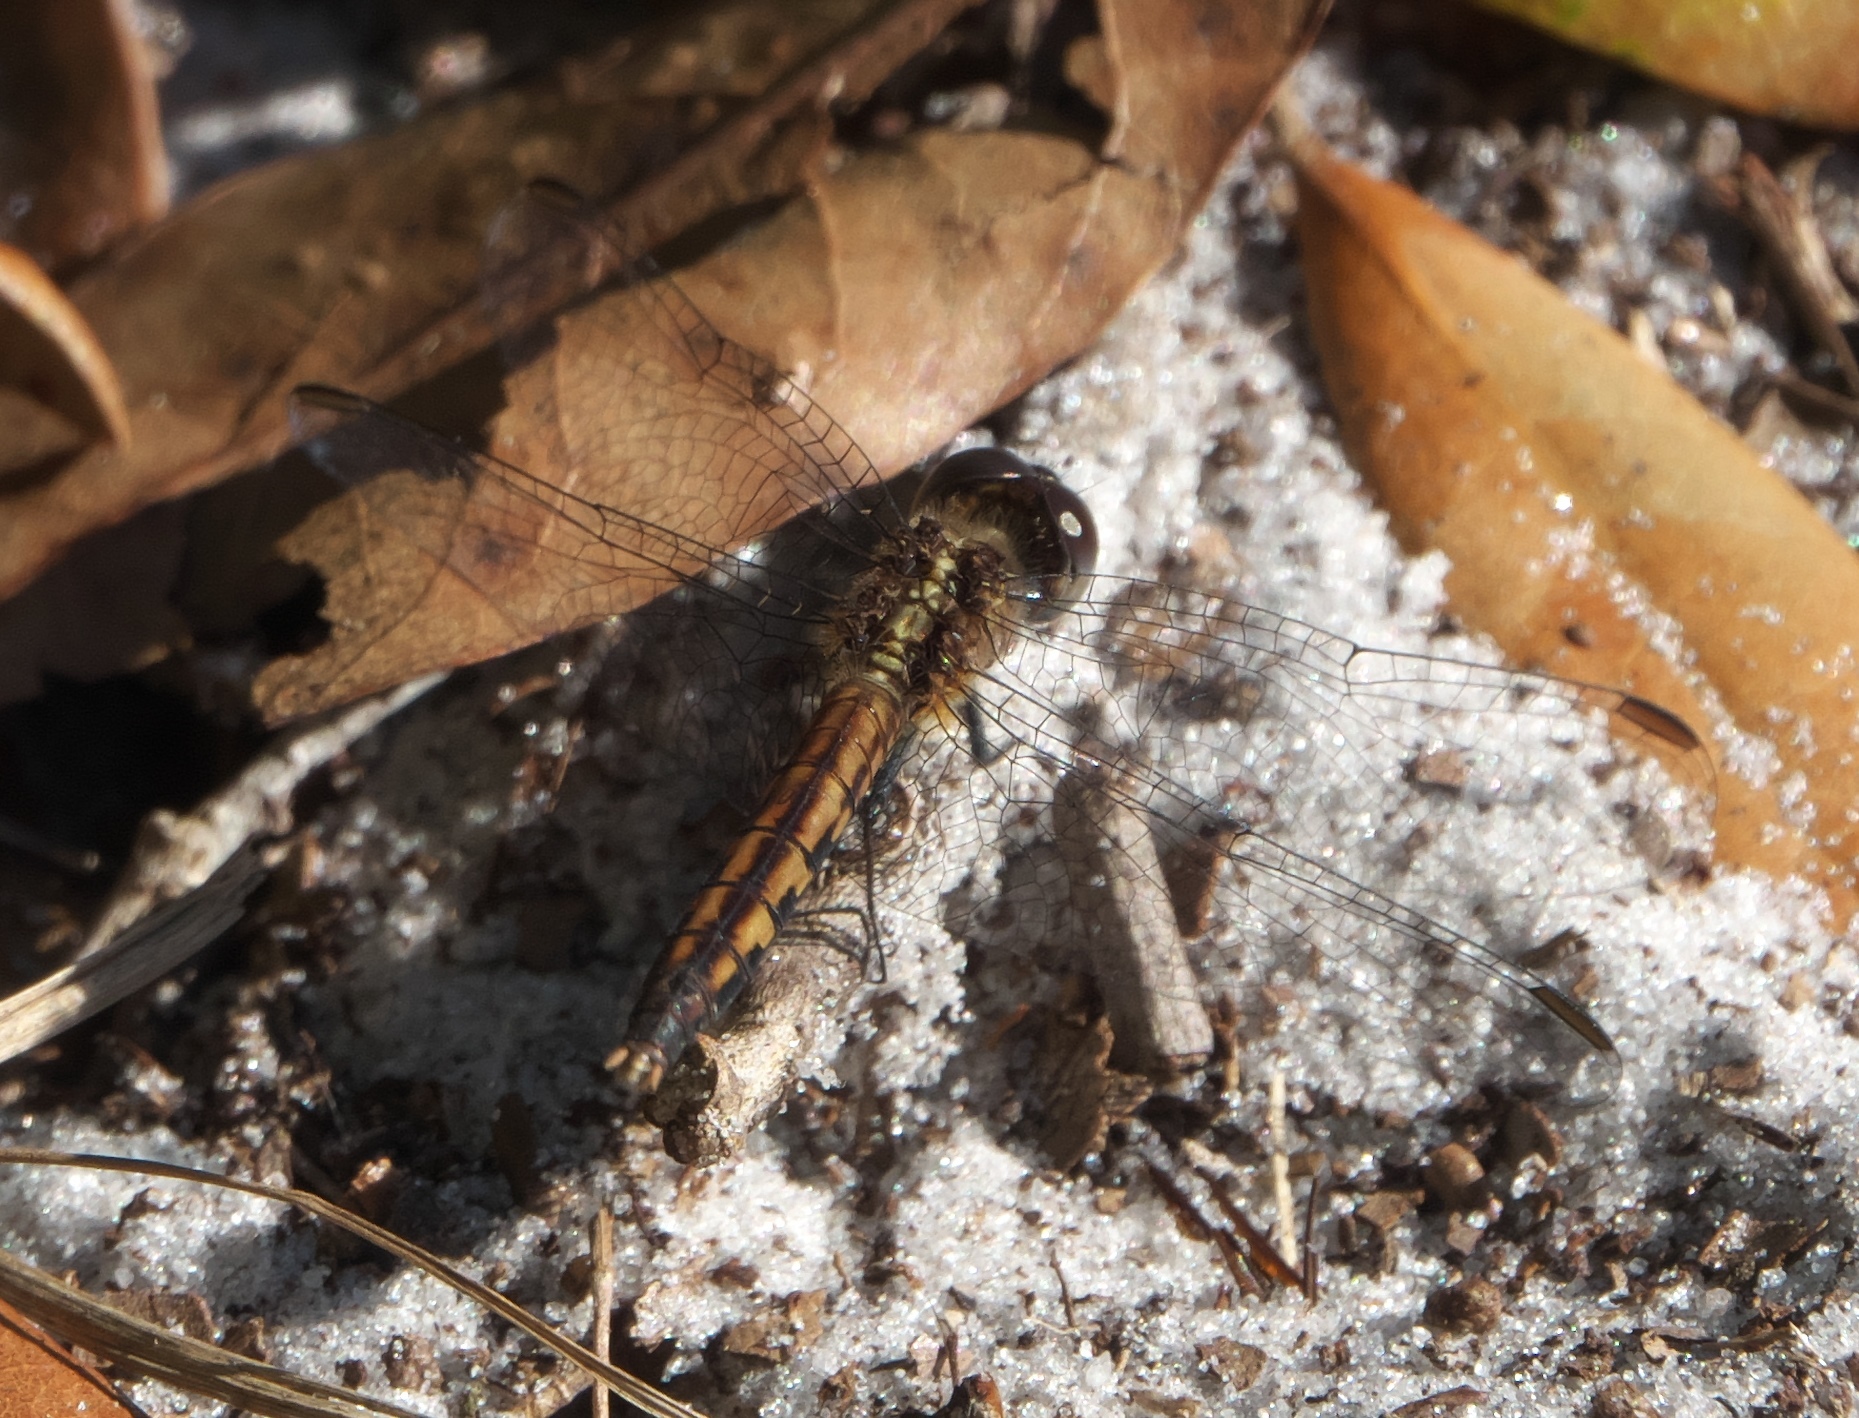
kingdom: Animalia
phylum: Arthropoda
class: Insecta
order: Odonata
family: Libellulidae
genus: Erythrodiplax
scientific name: Erythrodiplax minuscula
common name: Little blue dragonlet
